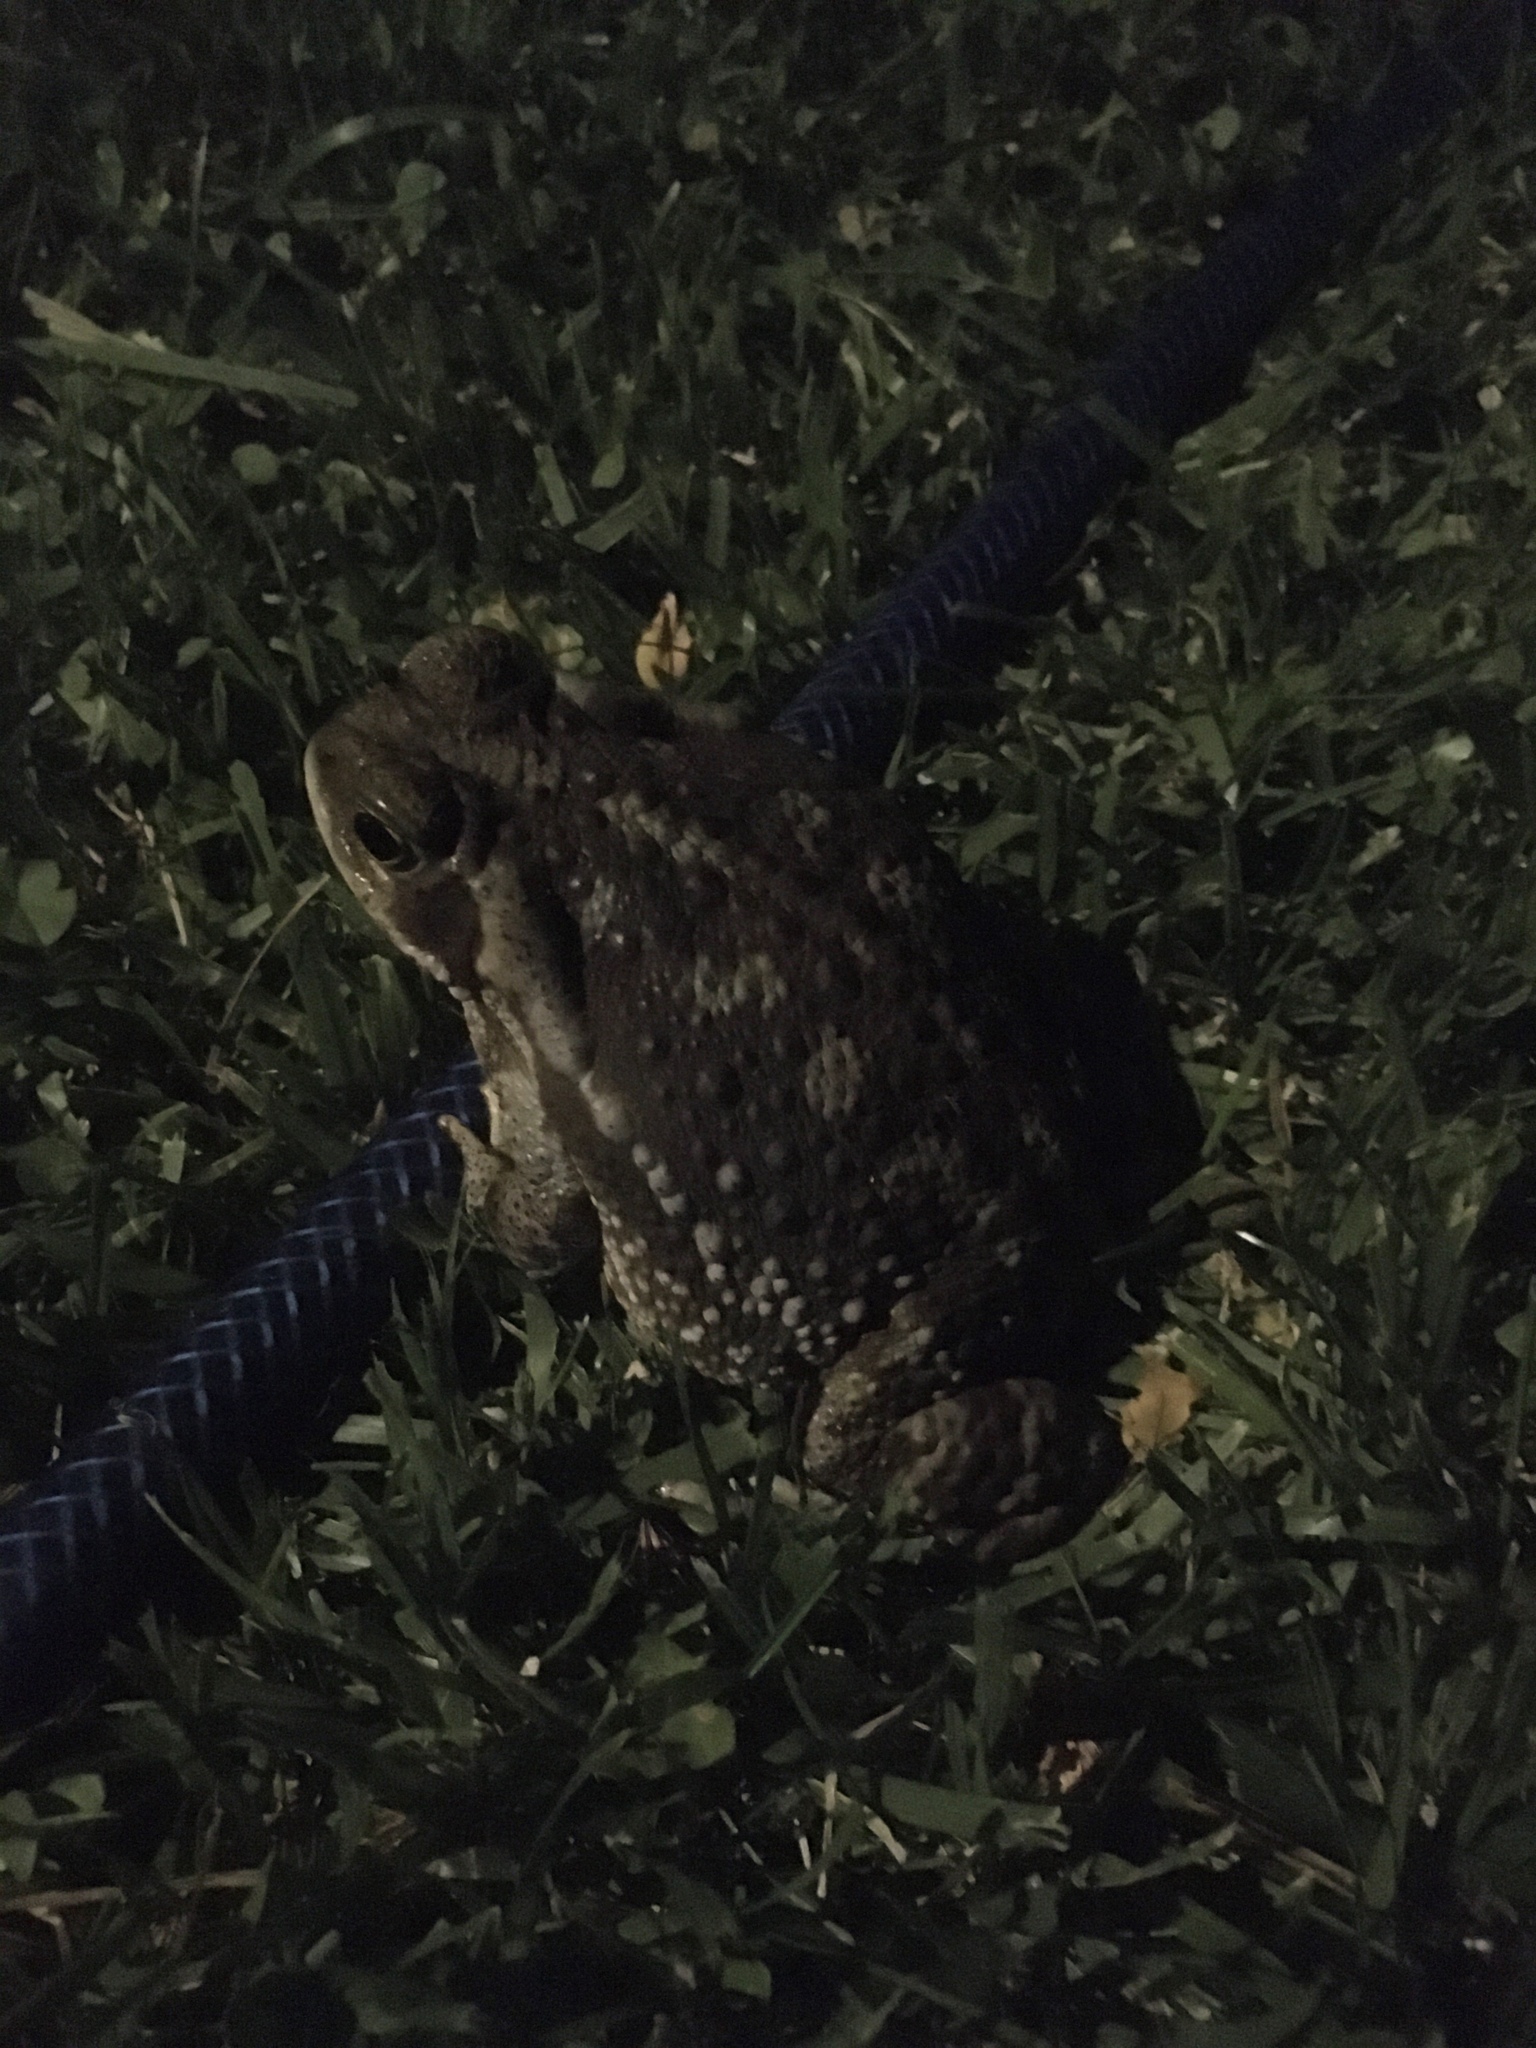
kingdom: Animalia
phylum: Chordata
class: Amphibia
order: Anura
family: Bufonidae
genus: Rhinella
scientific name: Rhinella arenarum
